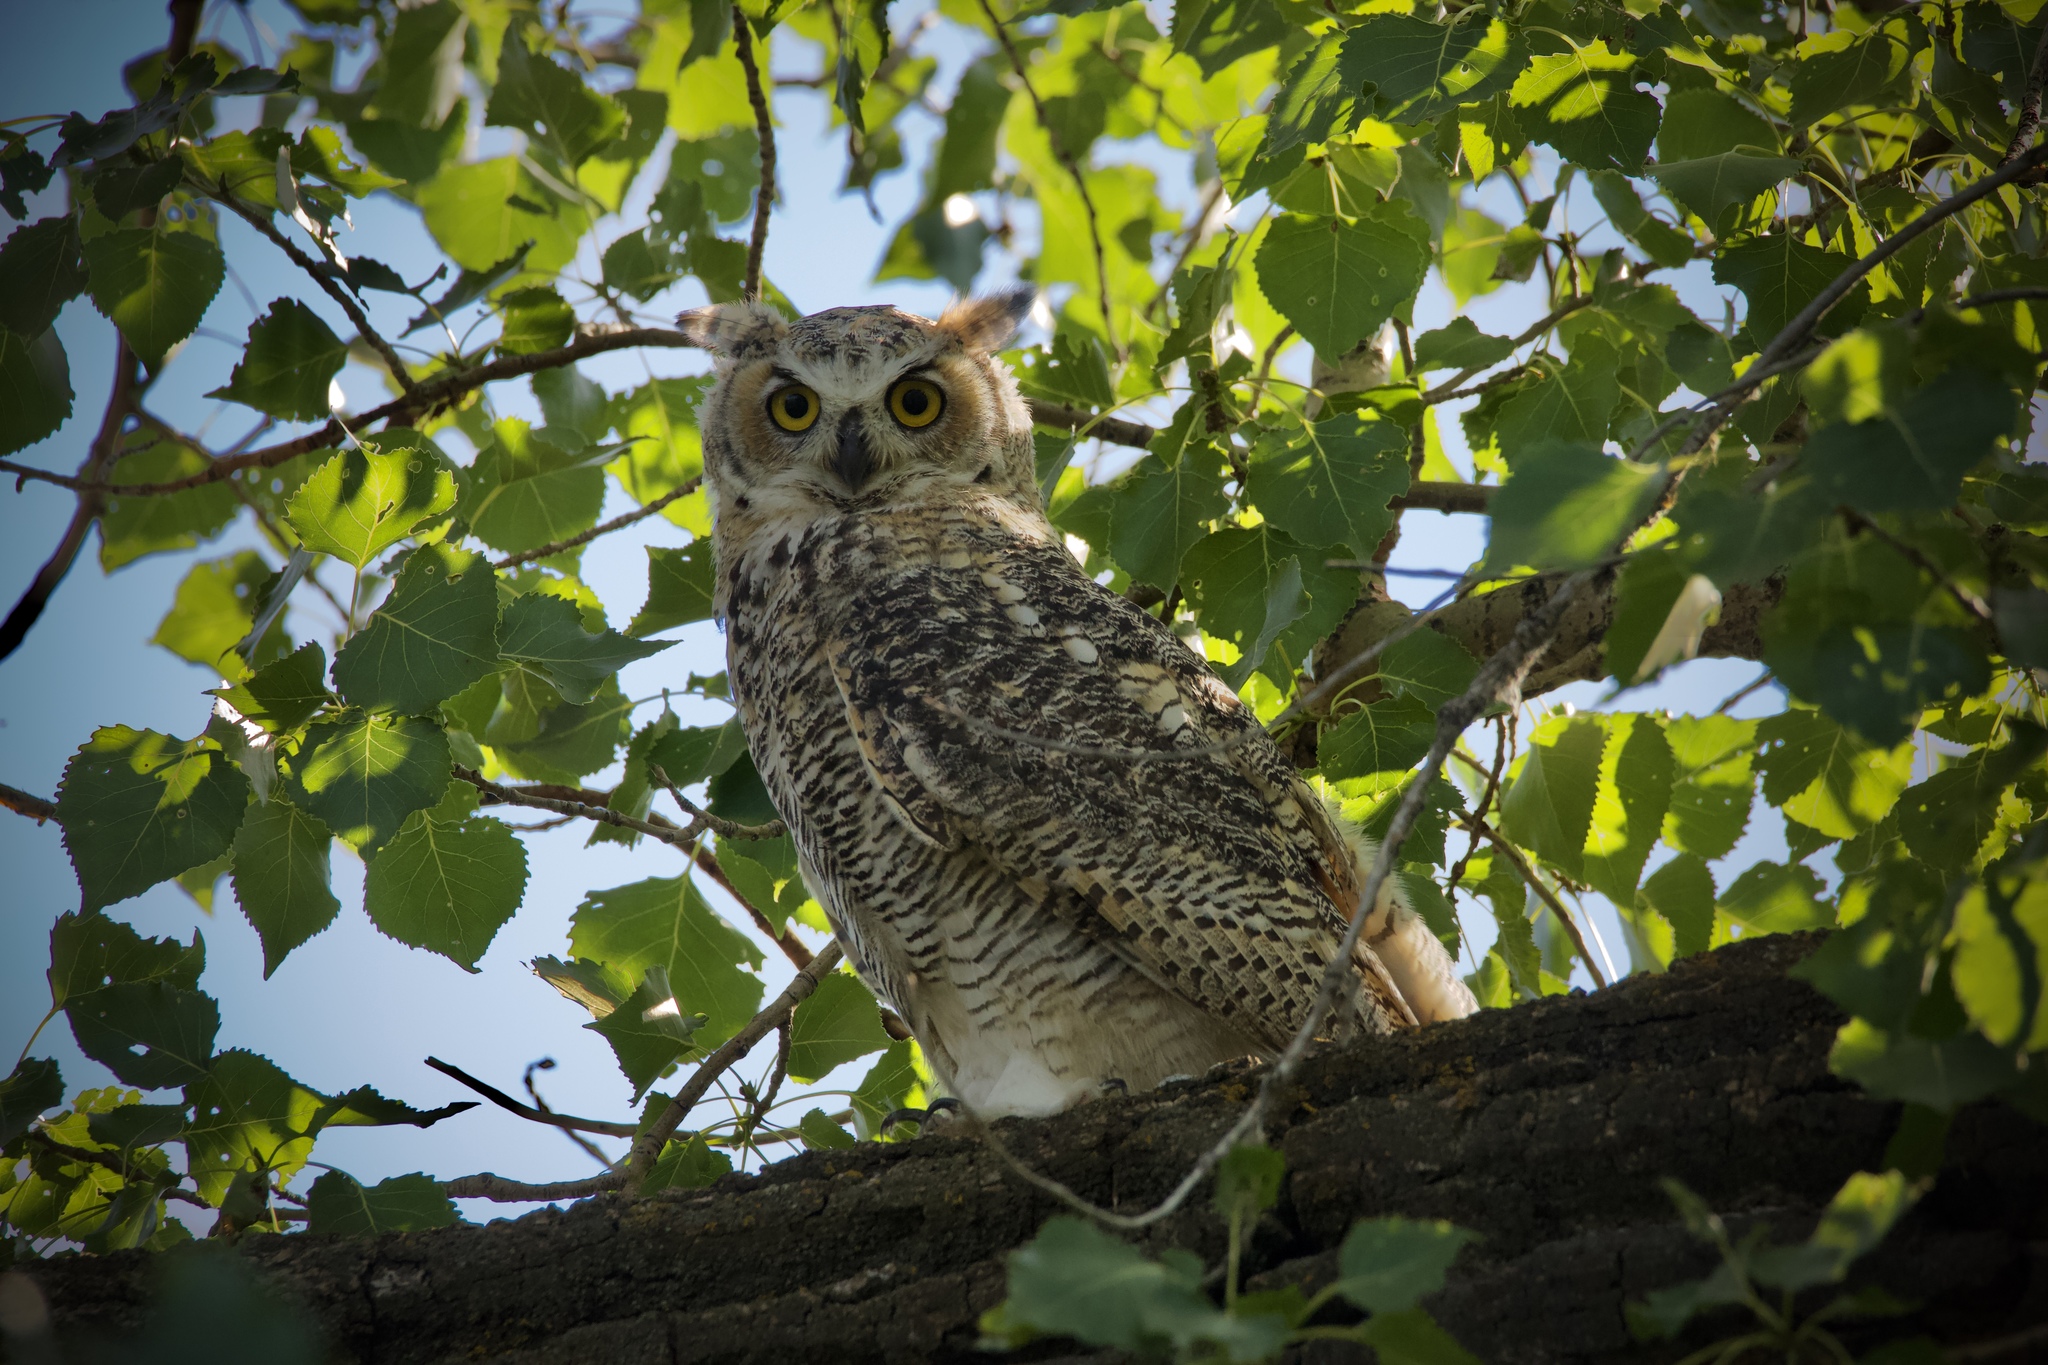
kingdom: Animalia
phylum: Chordata
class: Aves
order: Strigiformes
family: Strigidae
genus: Bubo
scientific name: Bubo virginianus
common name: Great horned owl
